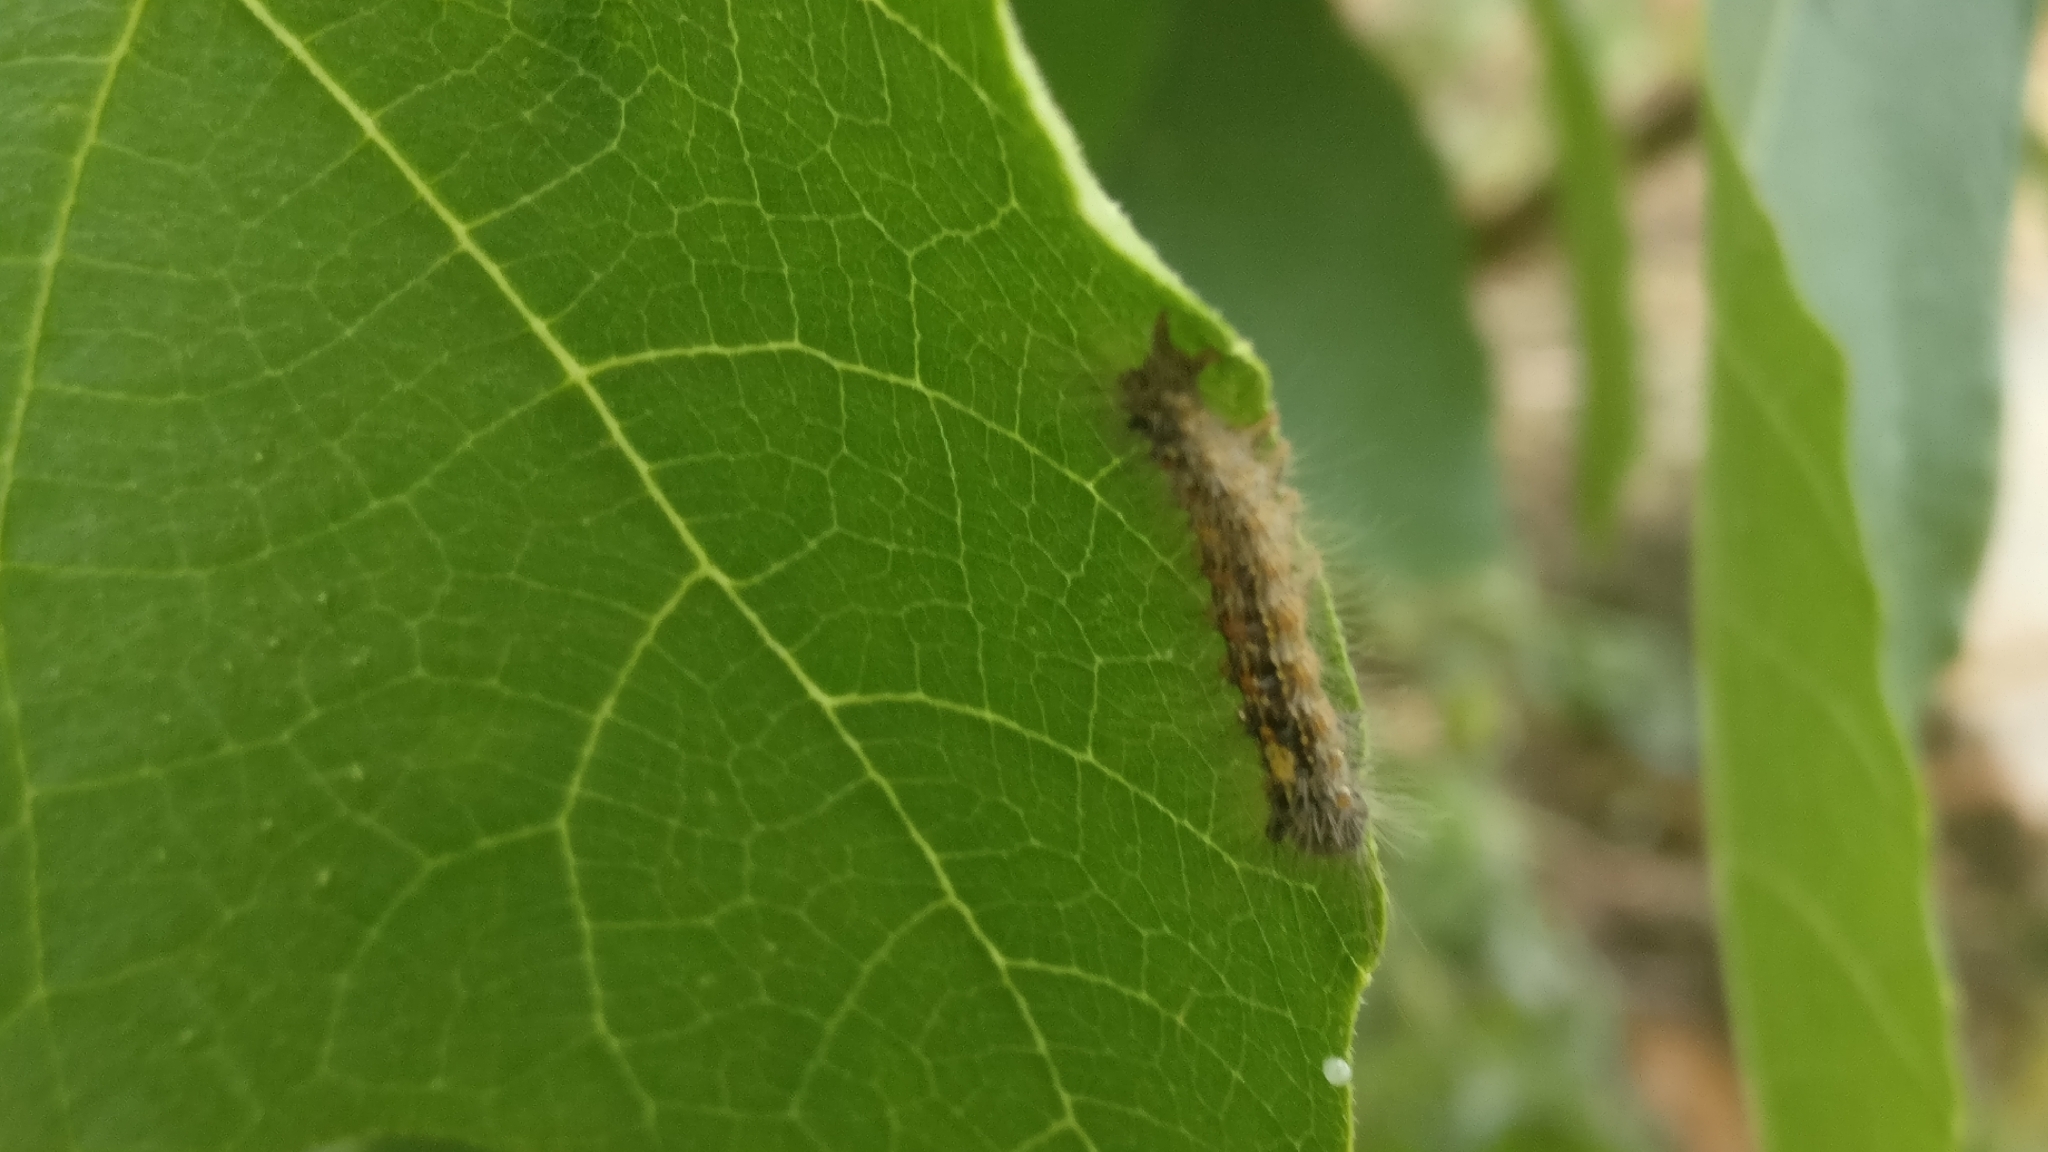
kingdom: Animalia
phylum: Arthropoda
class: Insecta
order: Lepidoptera
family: Erebidae
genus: Lymantria
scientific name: Lymantria dispar
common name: Gypsy moth
